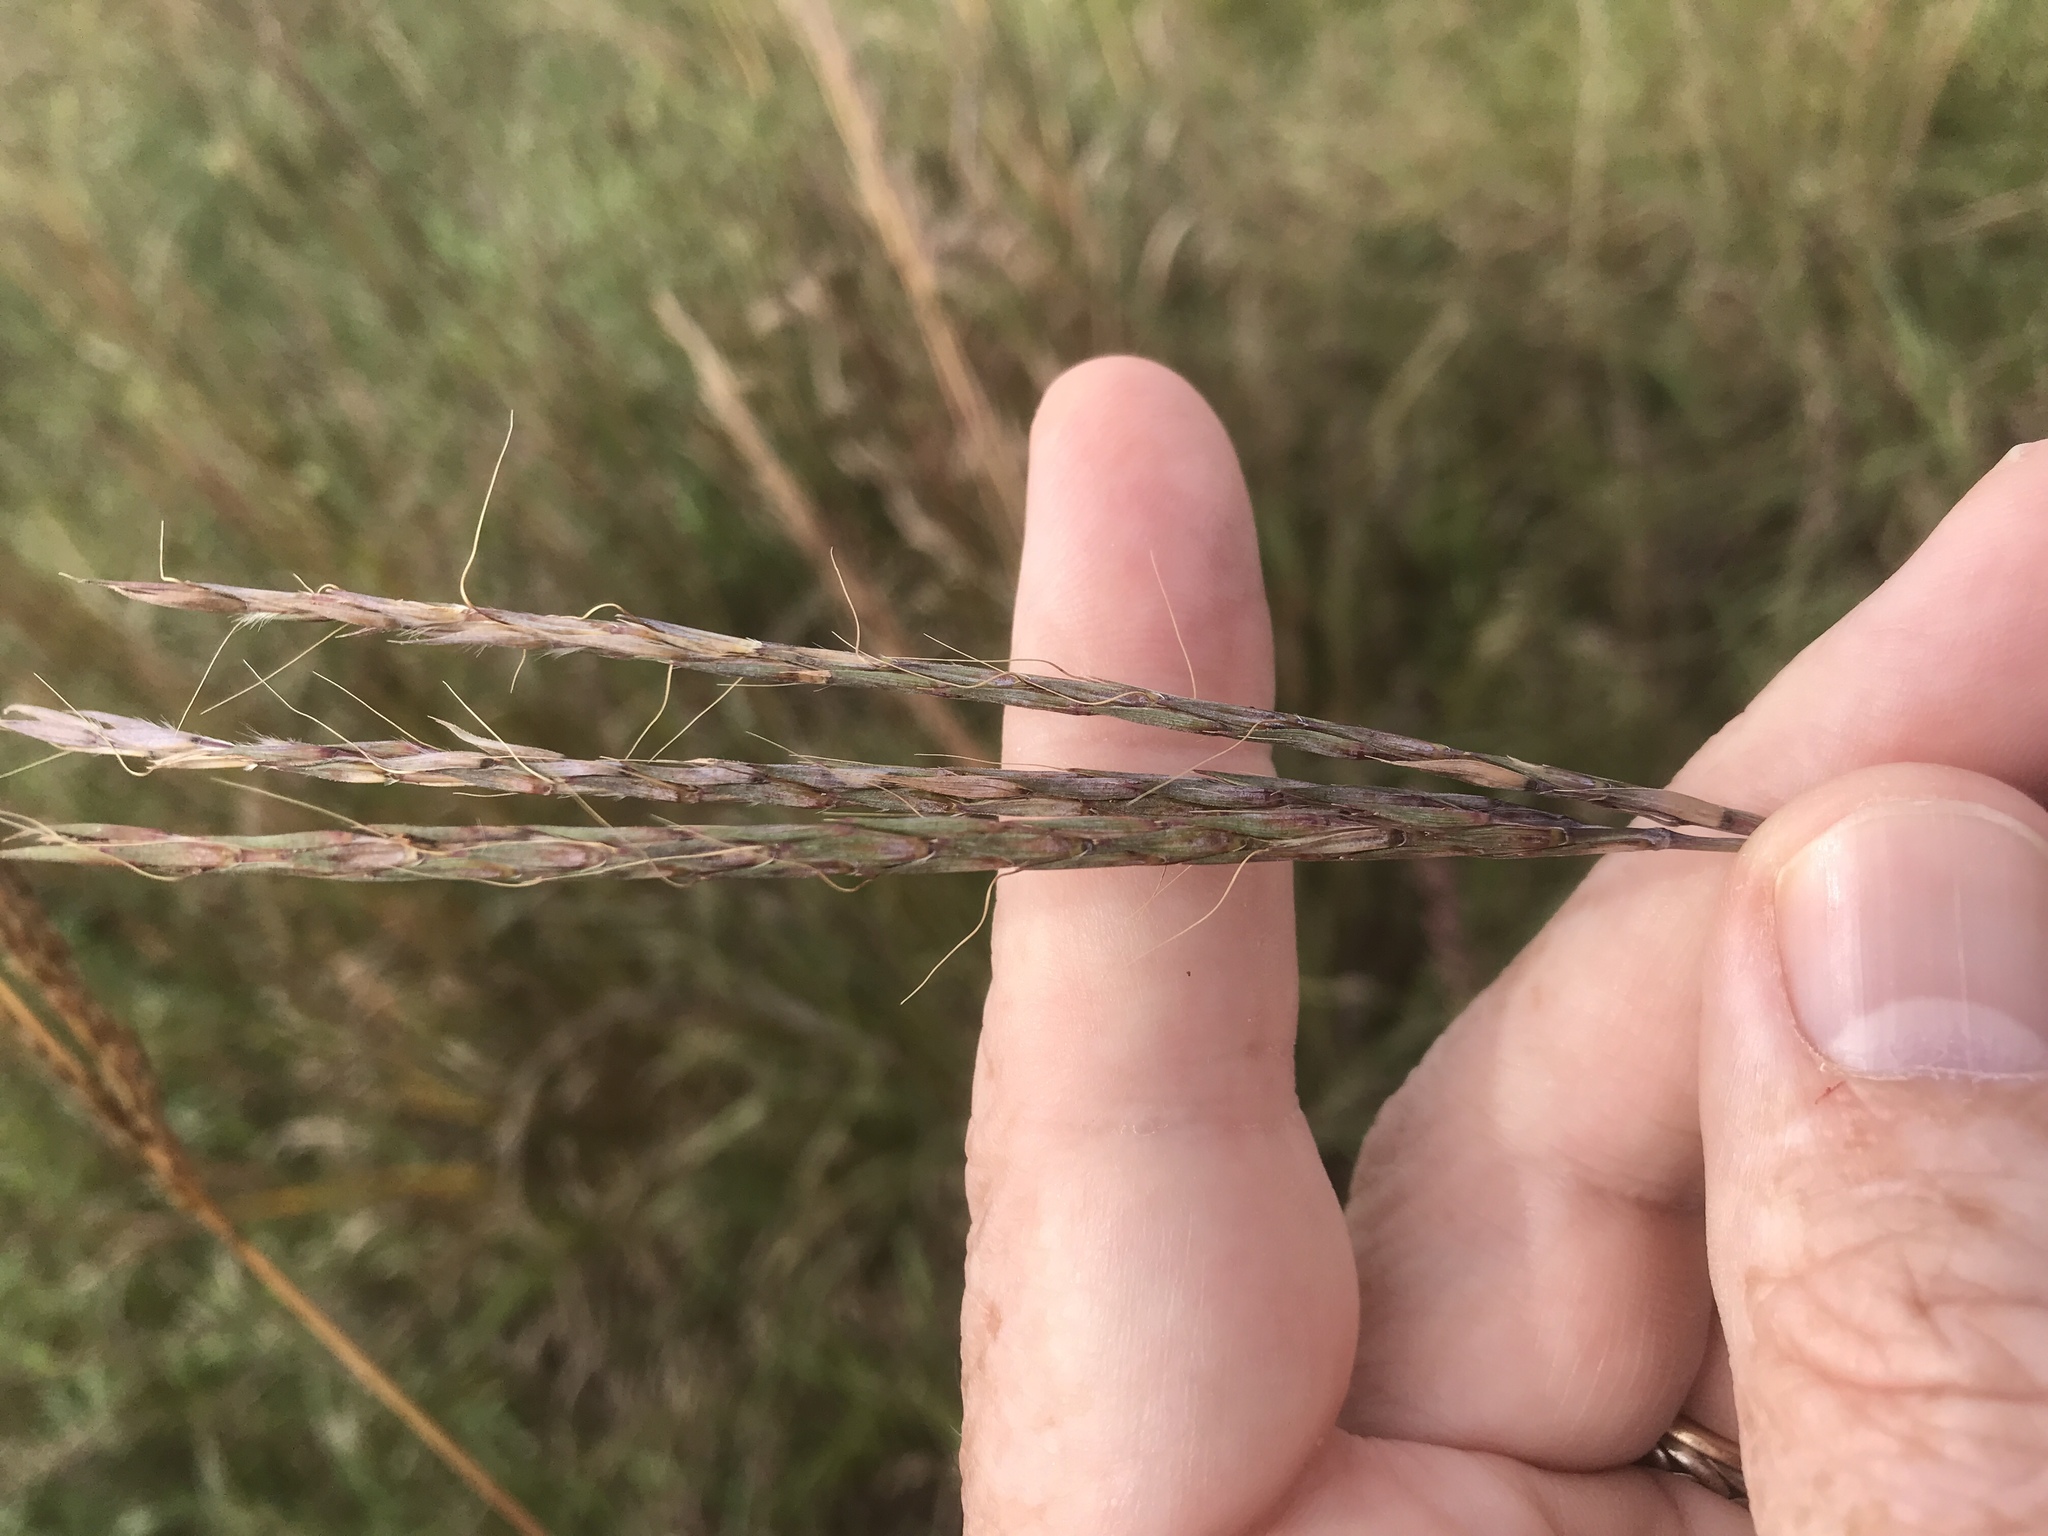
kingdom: Plantae
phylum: Tracheophyta
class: Liliopsida
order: Poales
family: Poaceae
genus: Andropogon
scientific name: Andropogon gerardi
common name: Big bluestem
